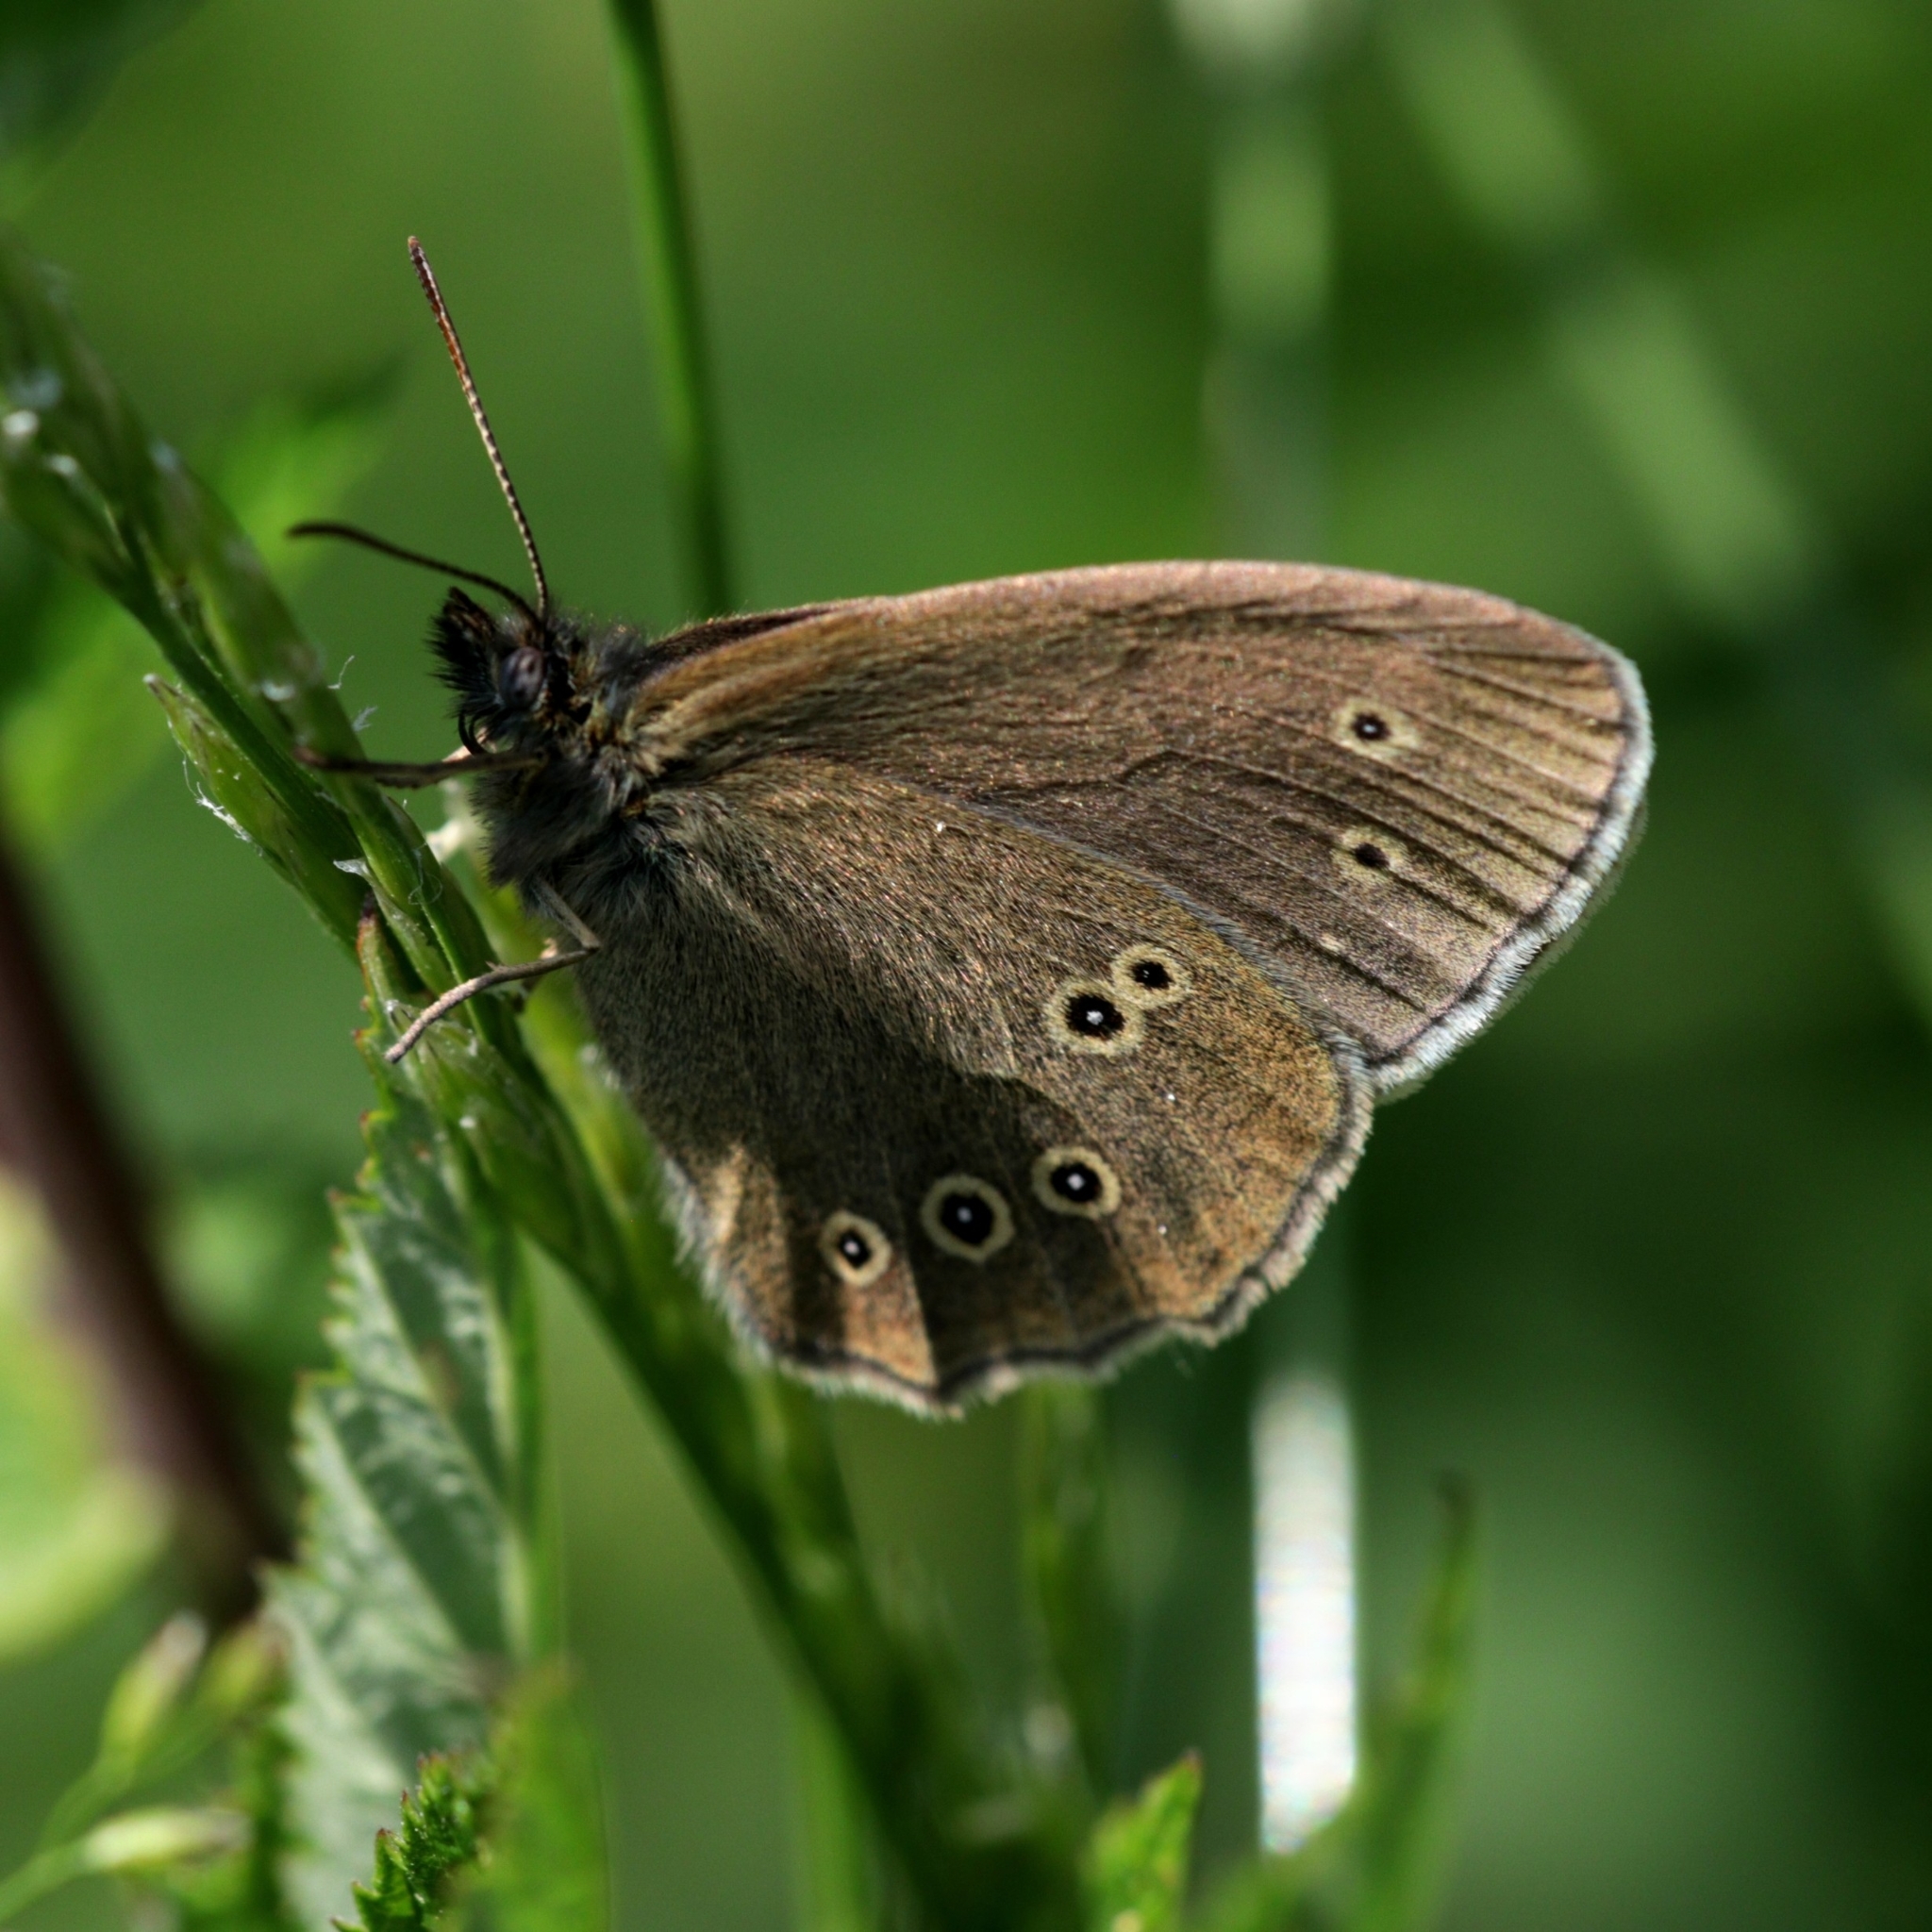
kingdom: Animalia
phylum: Arthropoda
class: Insecta
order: Lepidoptera
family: Nymphalidae
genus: Aphantopus
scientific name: Aphantopus hyperantus
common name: Ringlet
